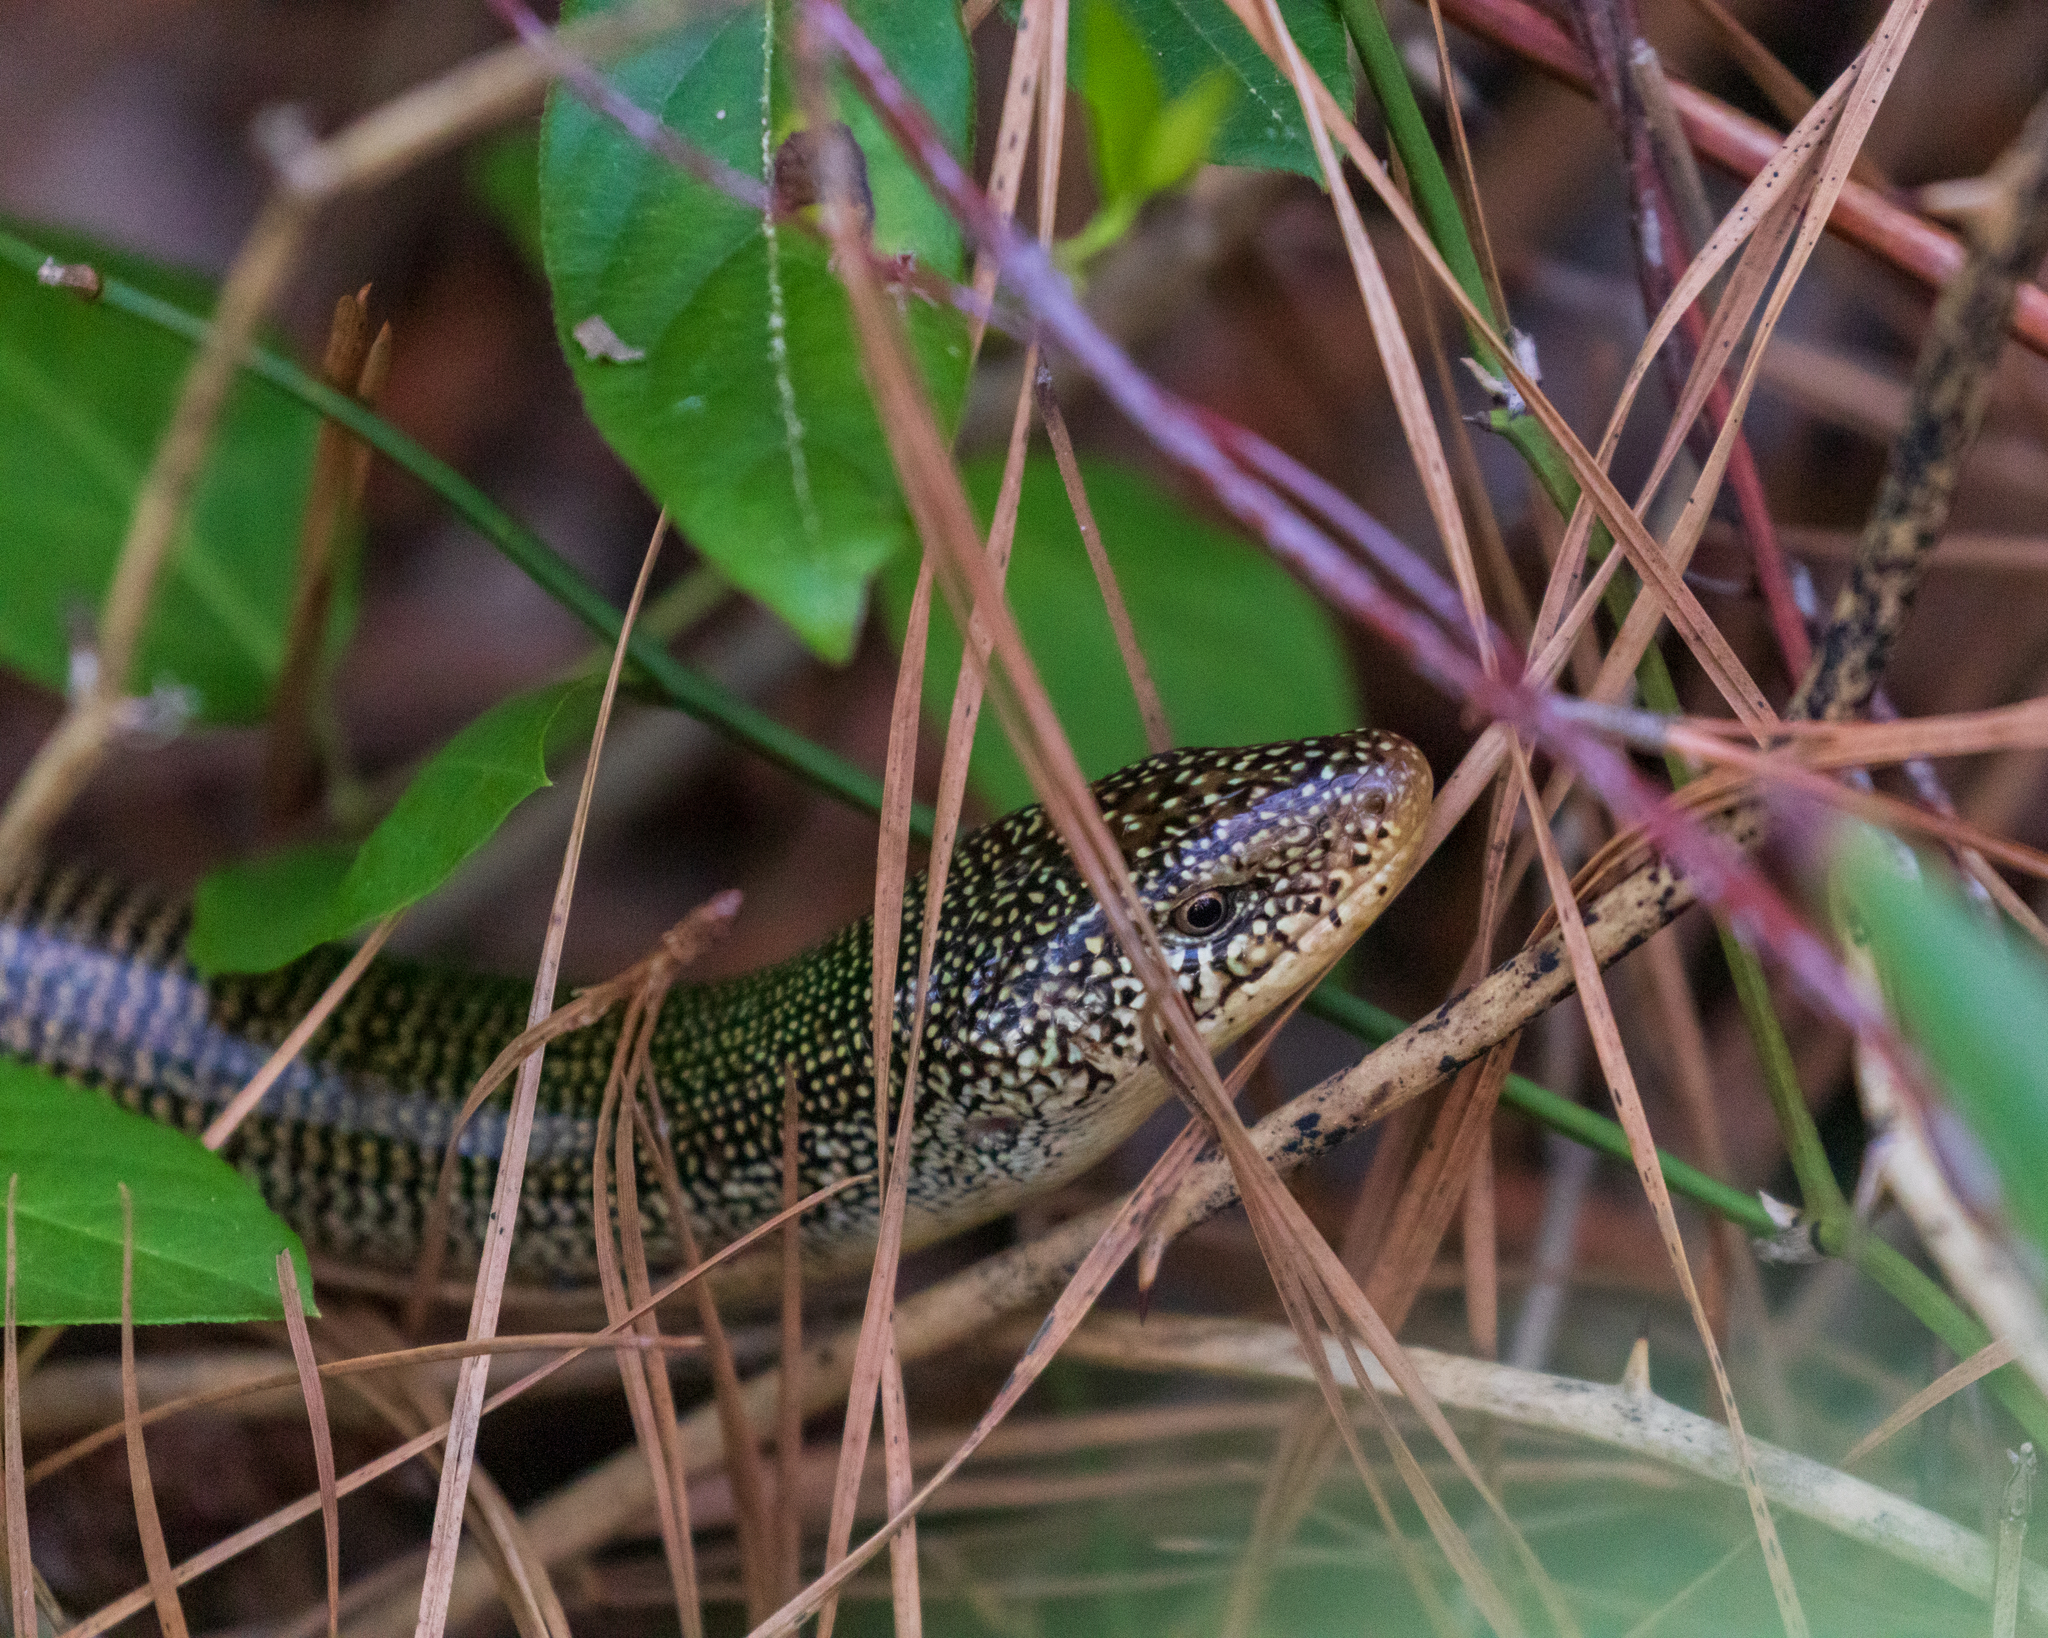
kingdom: Animalia
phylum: Chordata
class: Squamata
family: Anguidae
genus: Ophisaurus
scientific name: Ophisaurus ventralis
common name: Eastern glass lizard
